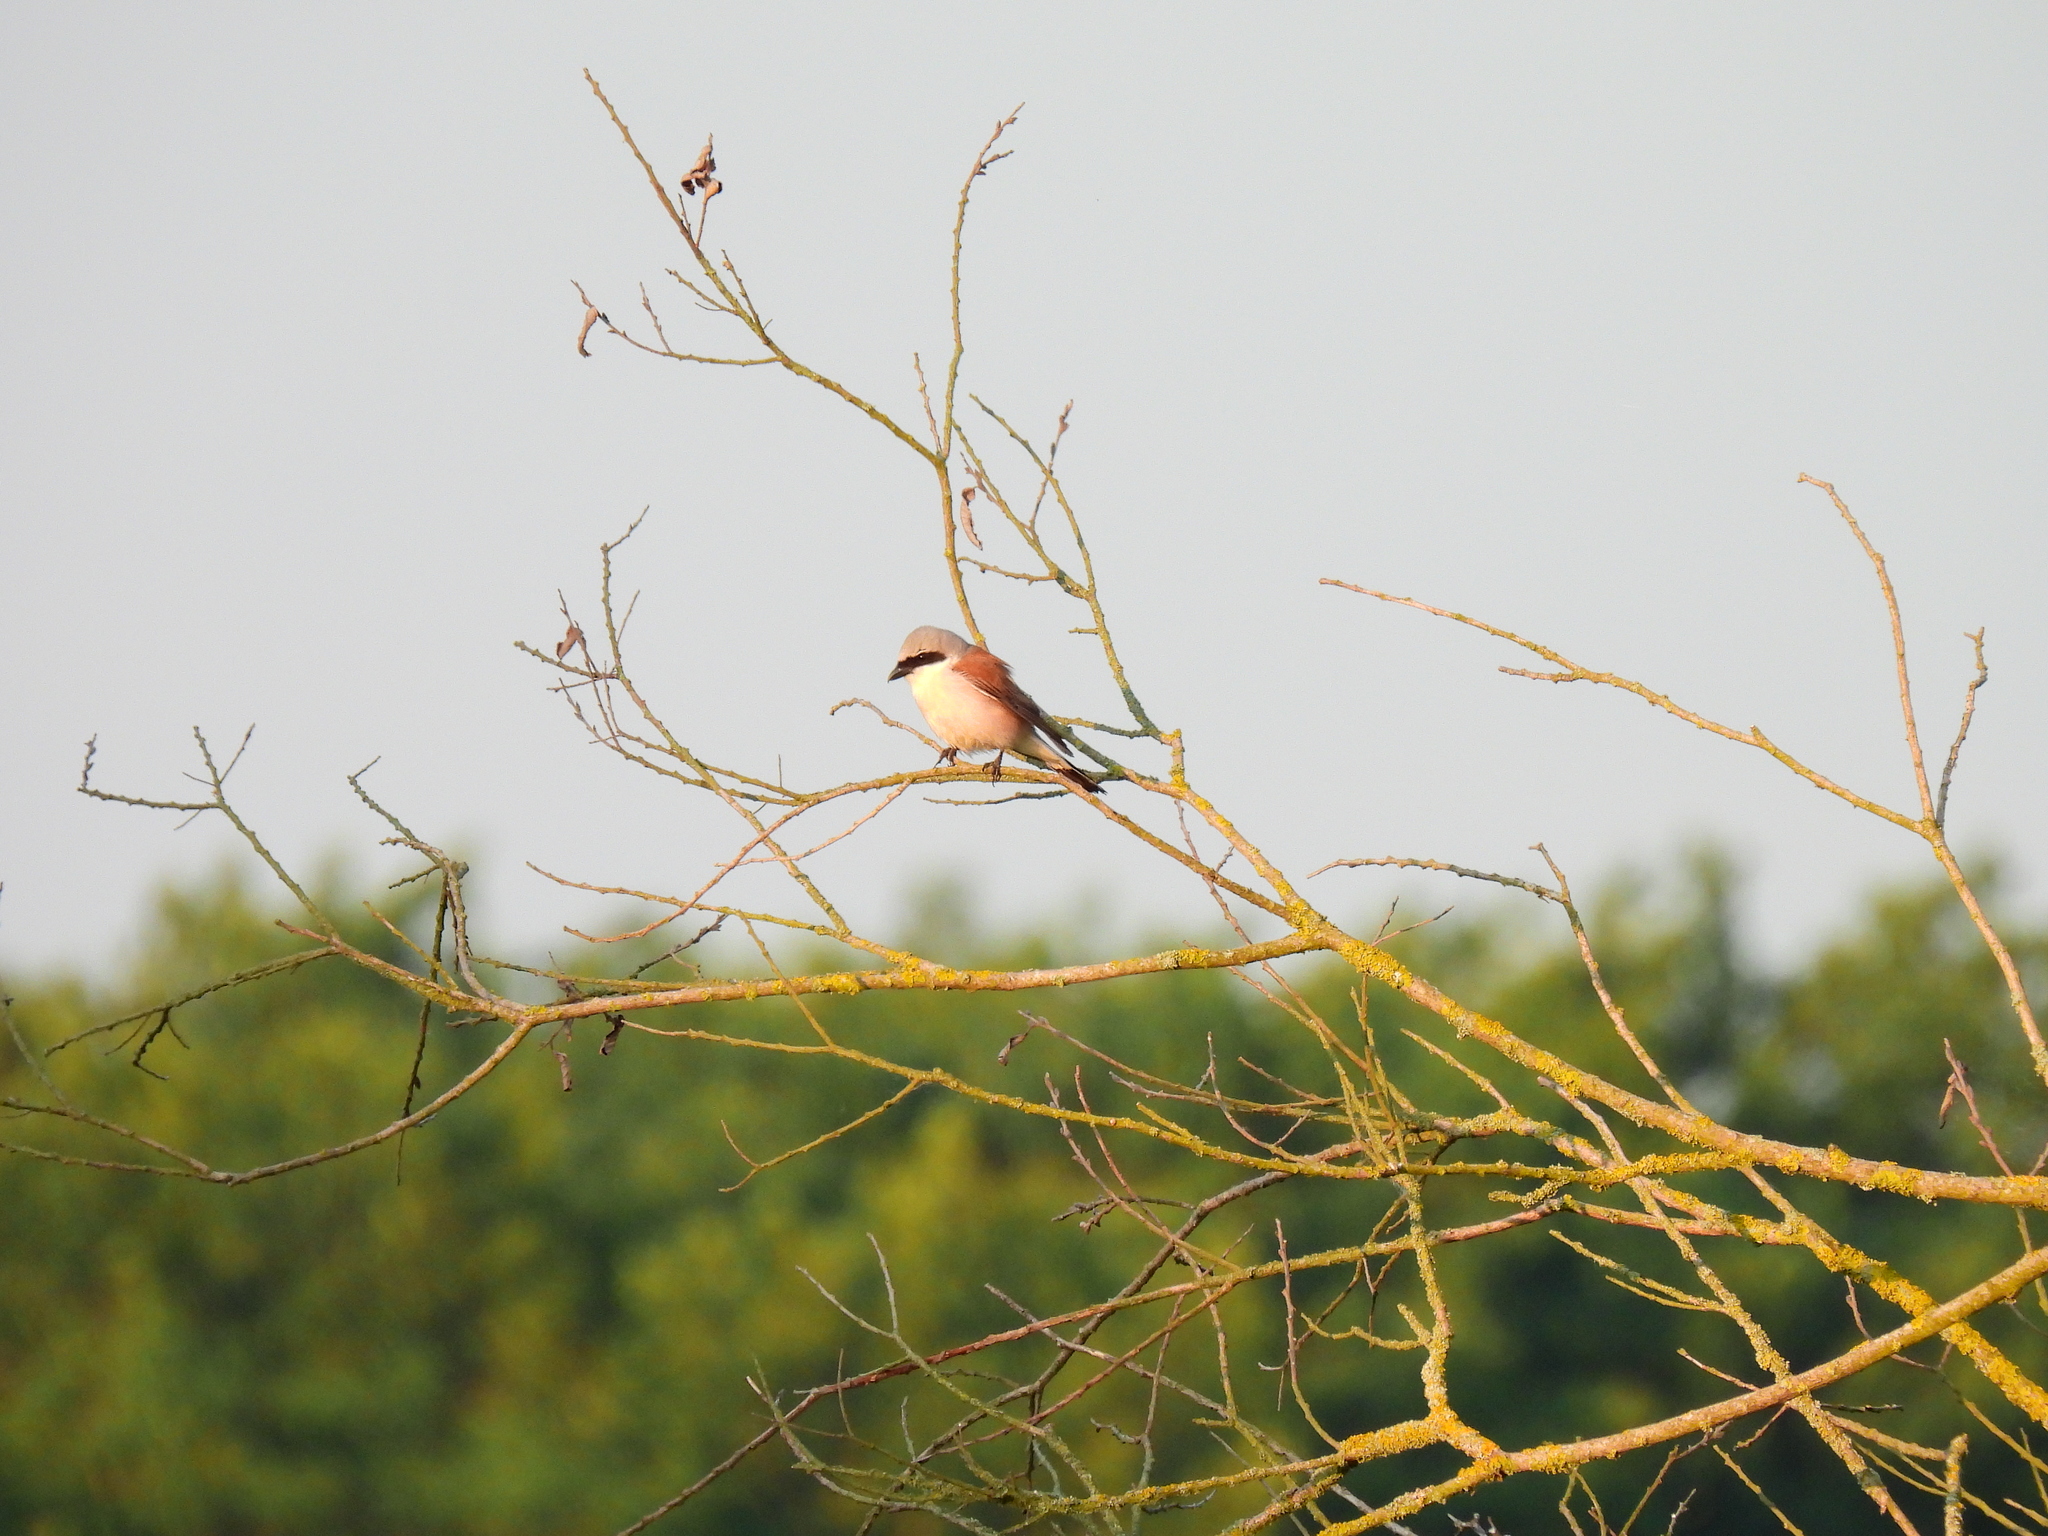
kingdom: Animalia
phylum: Chordata
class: Aves
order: Passeriformes
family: Laniidae
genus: Lanius
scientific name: Lanius collurio
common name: Red-backed shrike
